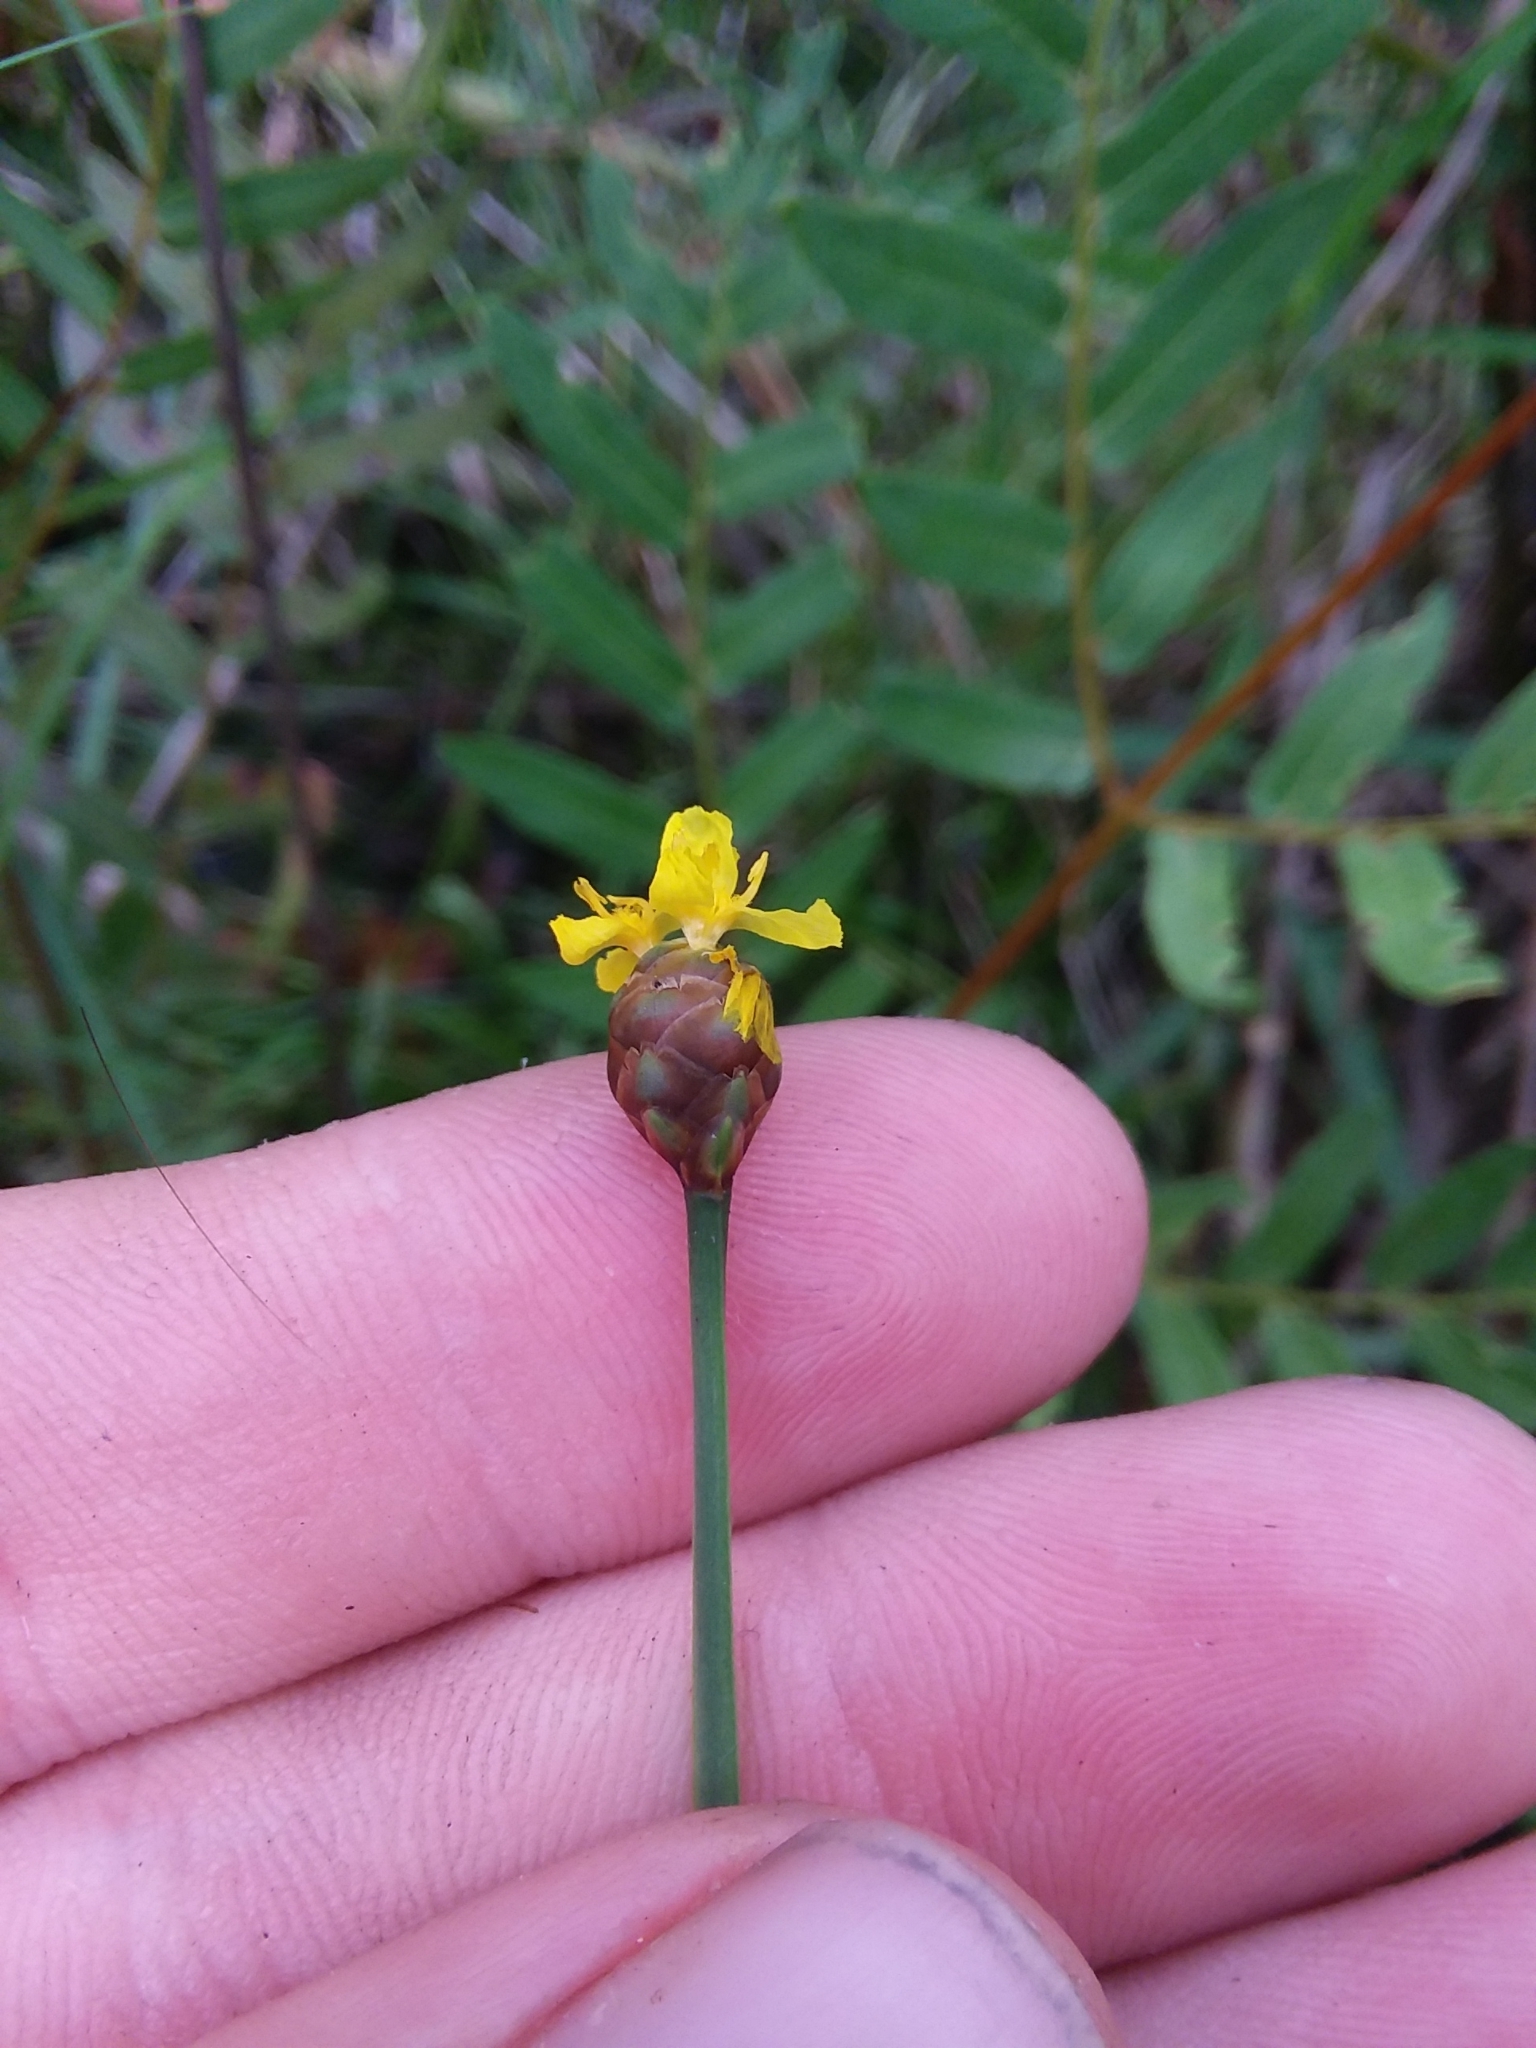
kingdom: Plantae
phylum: Tracheophyta
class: Liliopsida
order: Poales
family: Xyridaceae
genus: Xyris
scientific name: Xyris stricta
